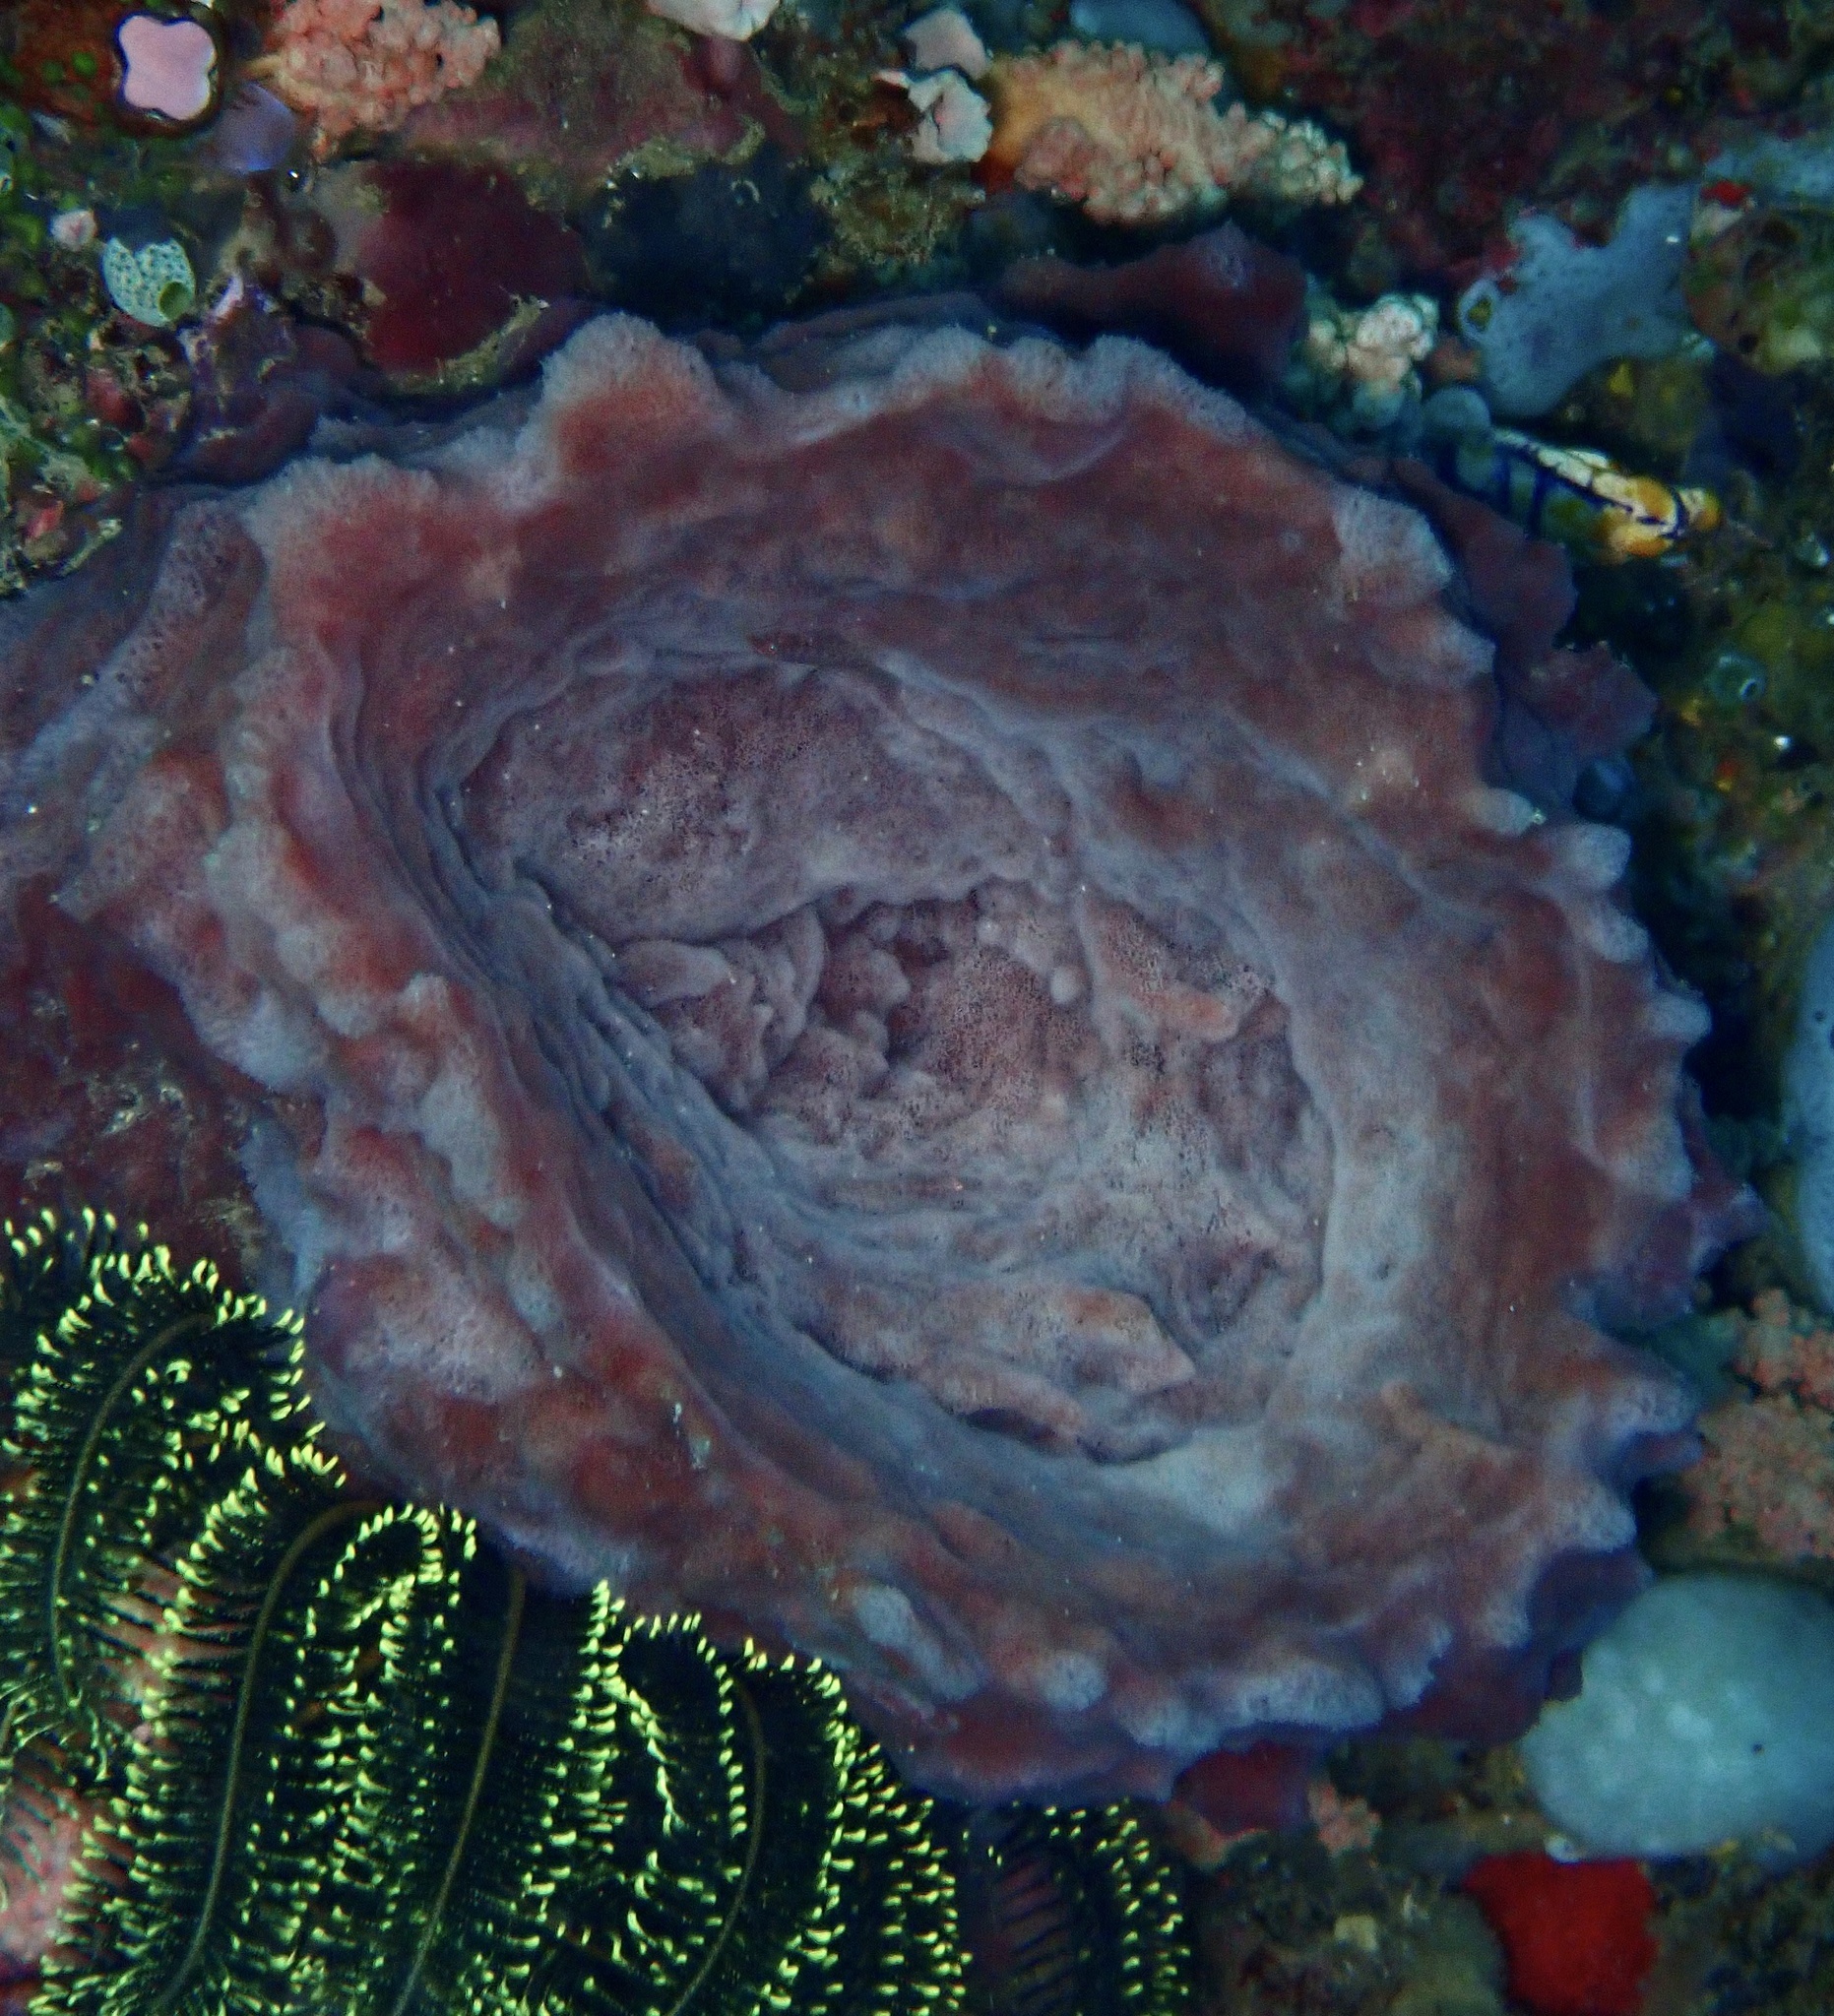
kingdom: Animalia
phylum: Porifera
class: Demospongiae
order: Haplosclerida
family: Petrosiidae
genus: Xestospongia
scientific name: Xestospongia testudinaria
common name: Barrel sponge
